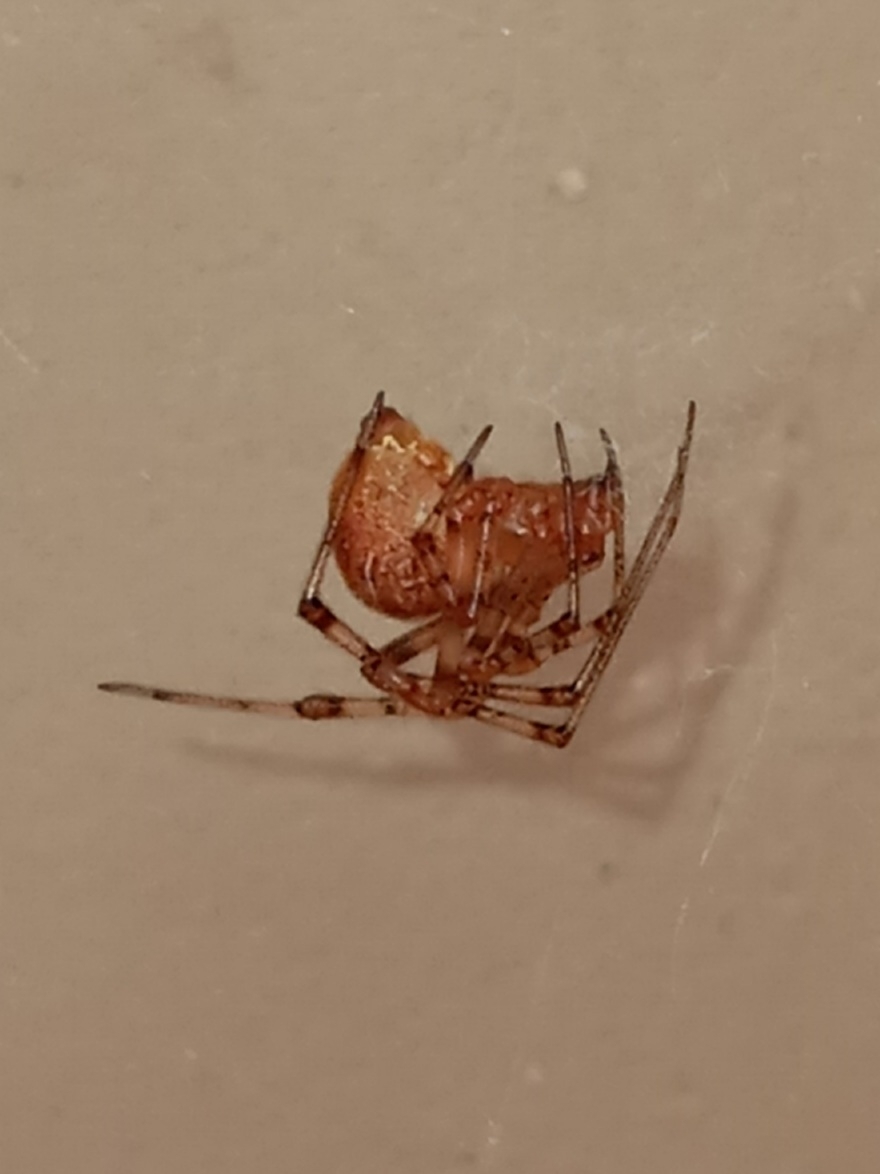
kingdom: Animalia
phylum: Arthropoda
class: Arachnida
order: Araneae
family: Theridiidae
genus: Parasteatoda
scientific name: Parasteatoda tepidariorum
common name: Common house spider
